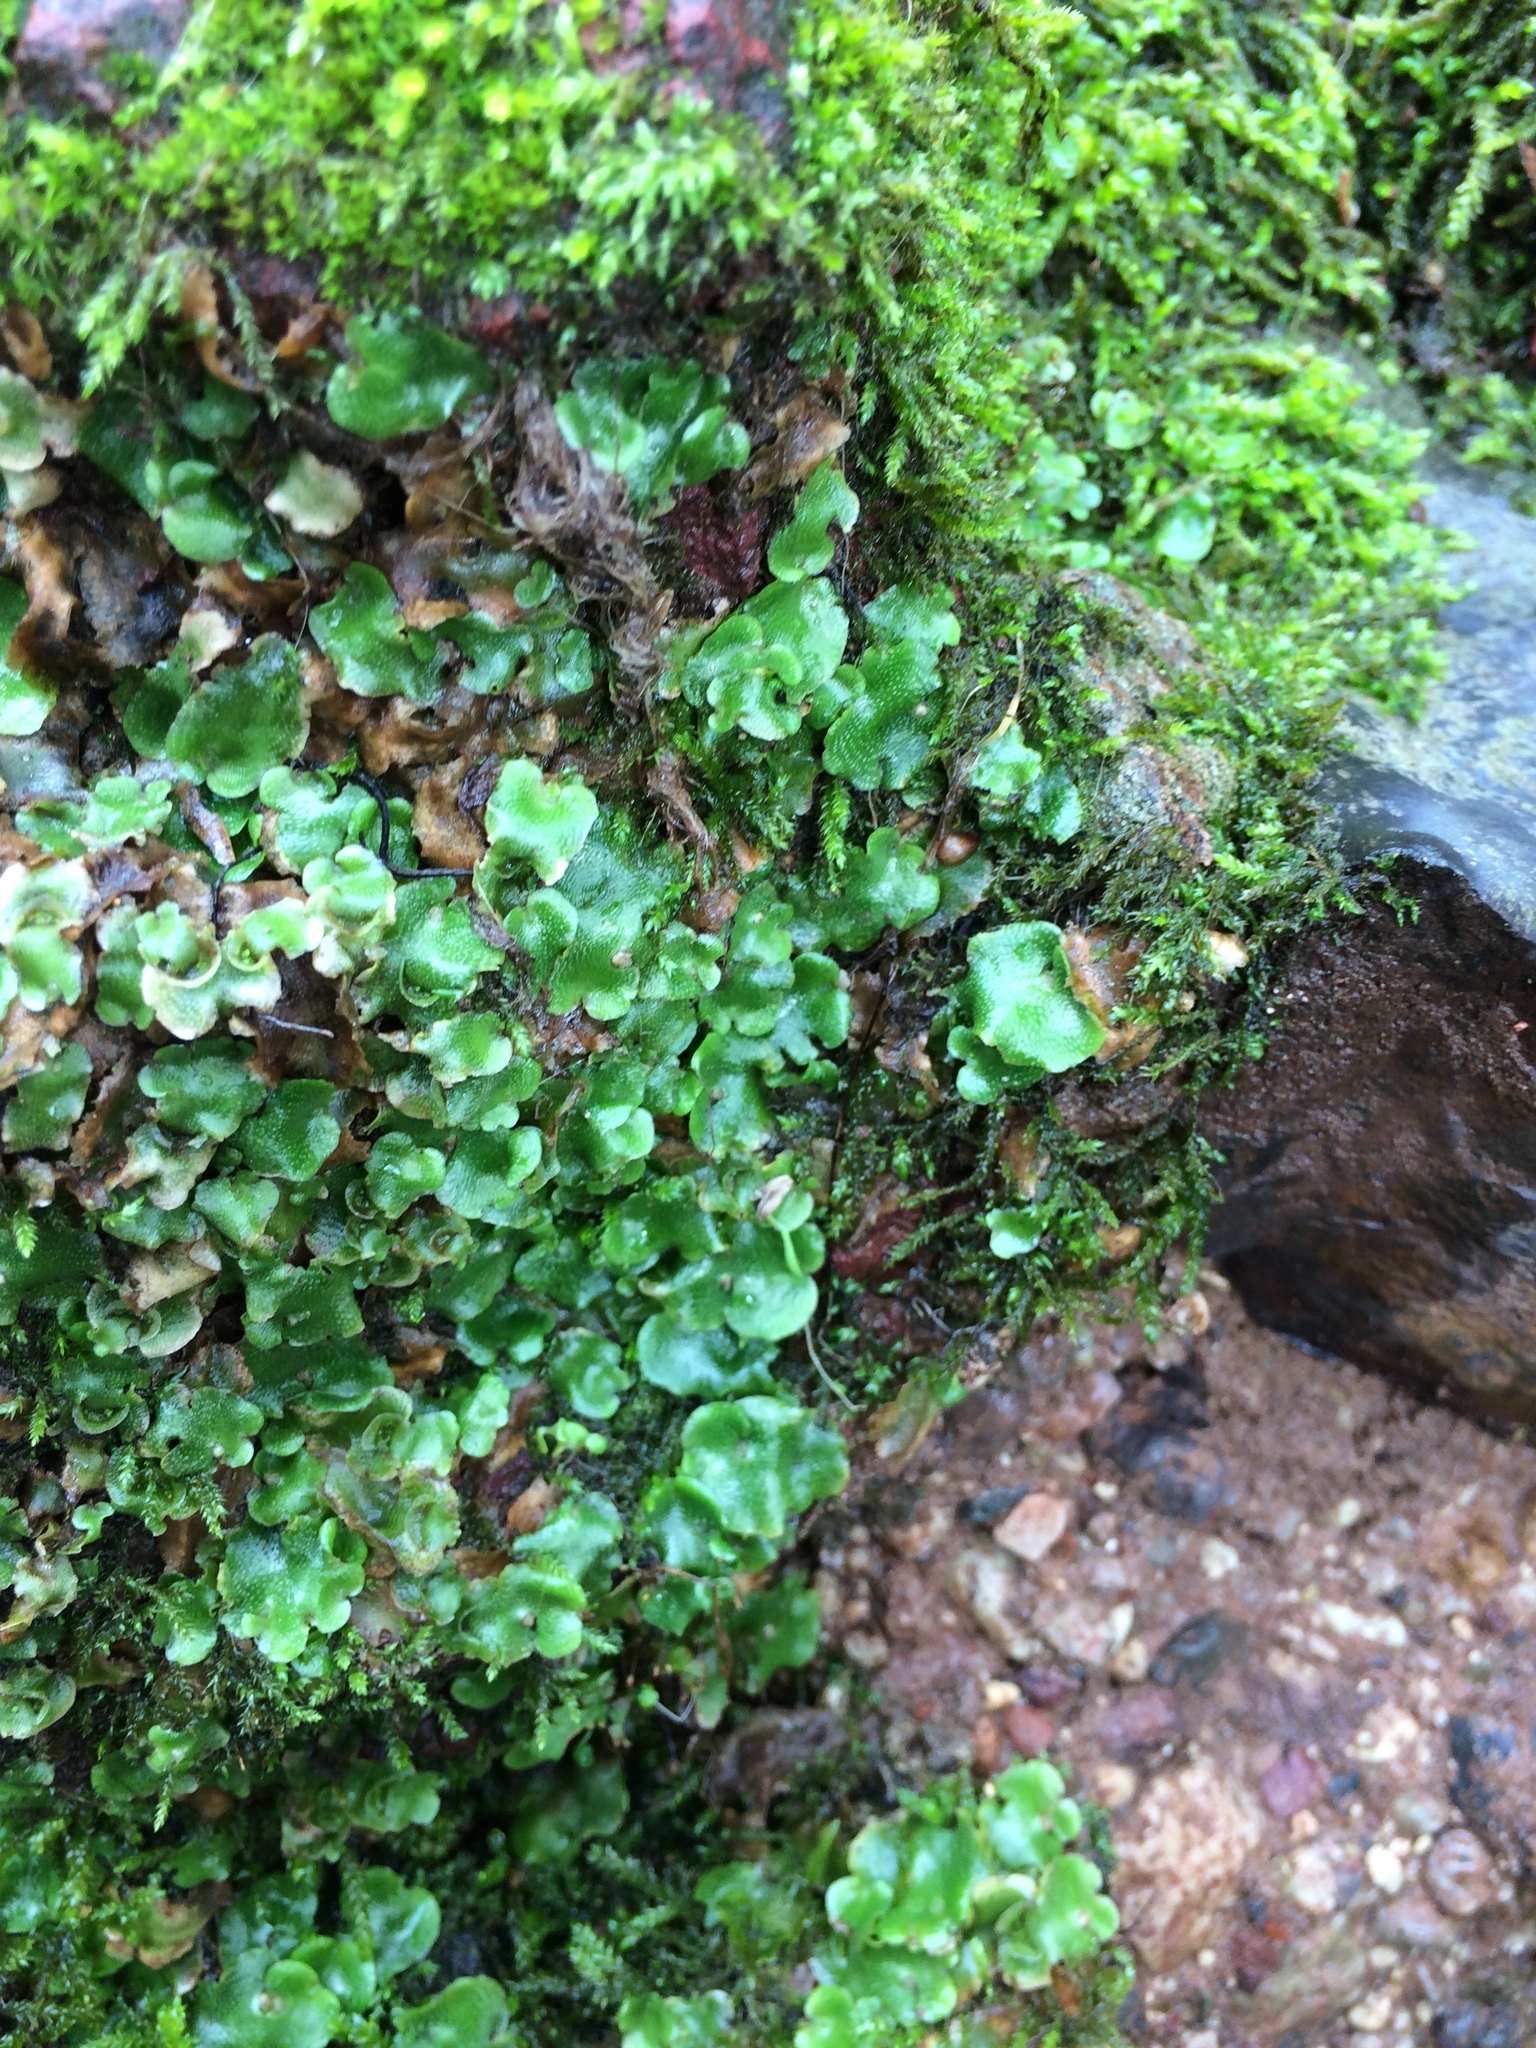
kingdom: Plantae
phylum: Marchantiophyta
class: Marchantiopsida
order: Lunulariales
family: Lunulariaceae
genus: Lunularia
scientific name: Lunularia cruciata
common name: Crescent-cup liverwort
